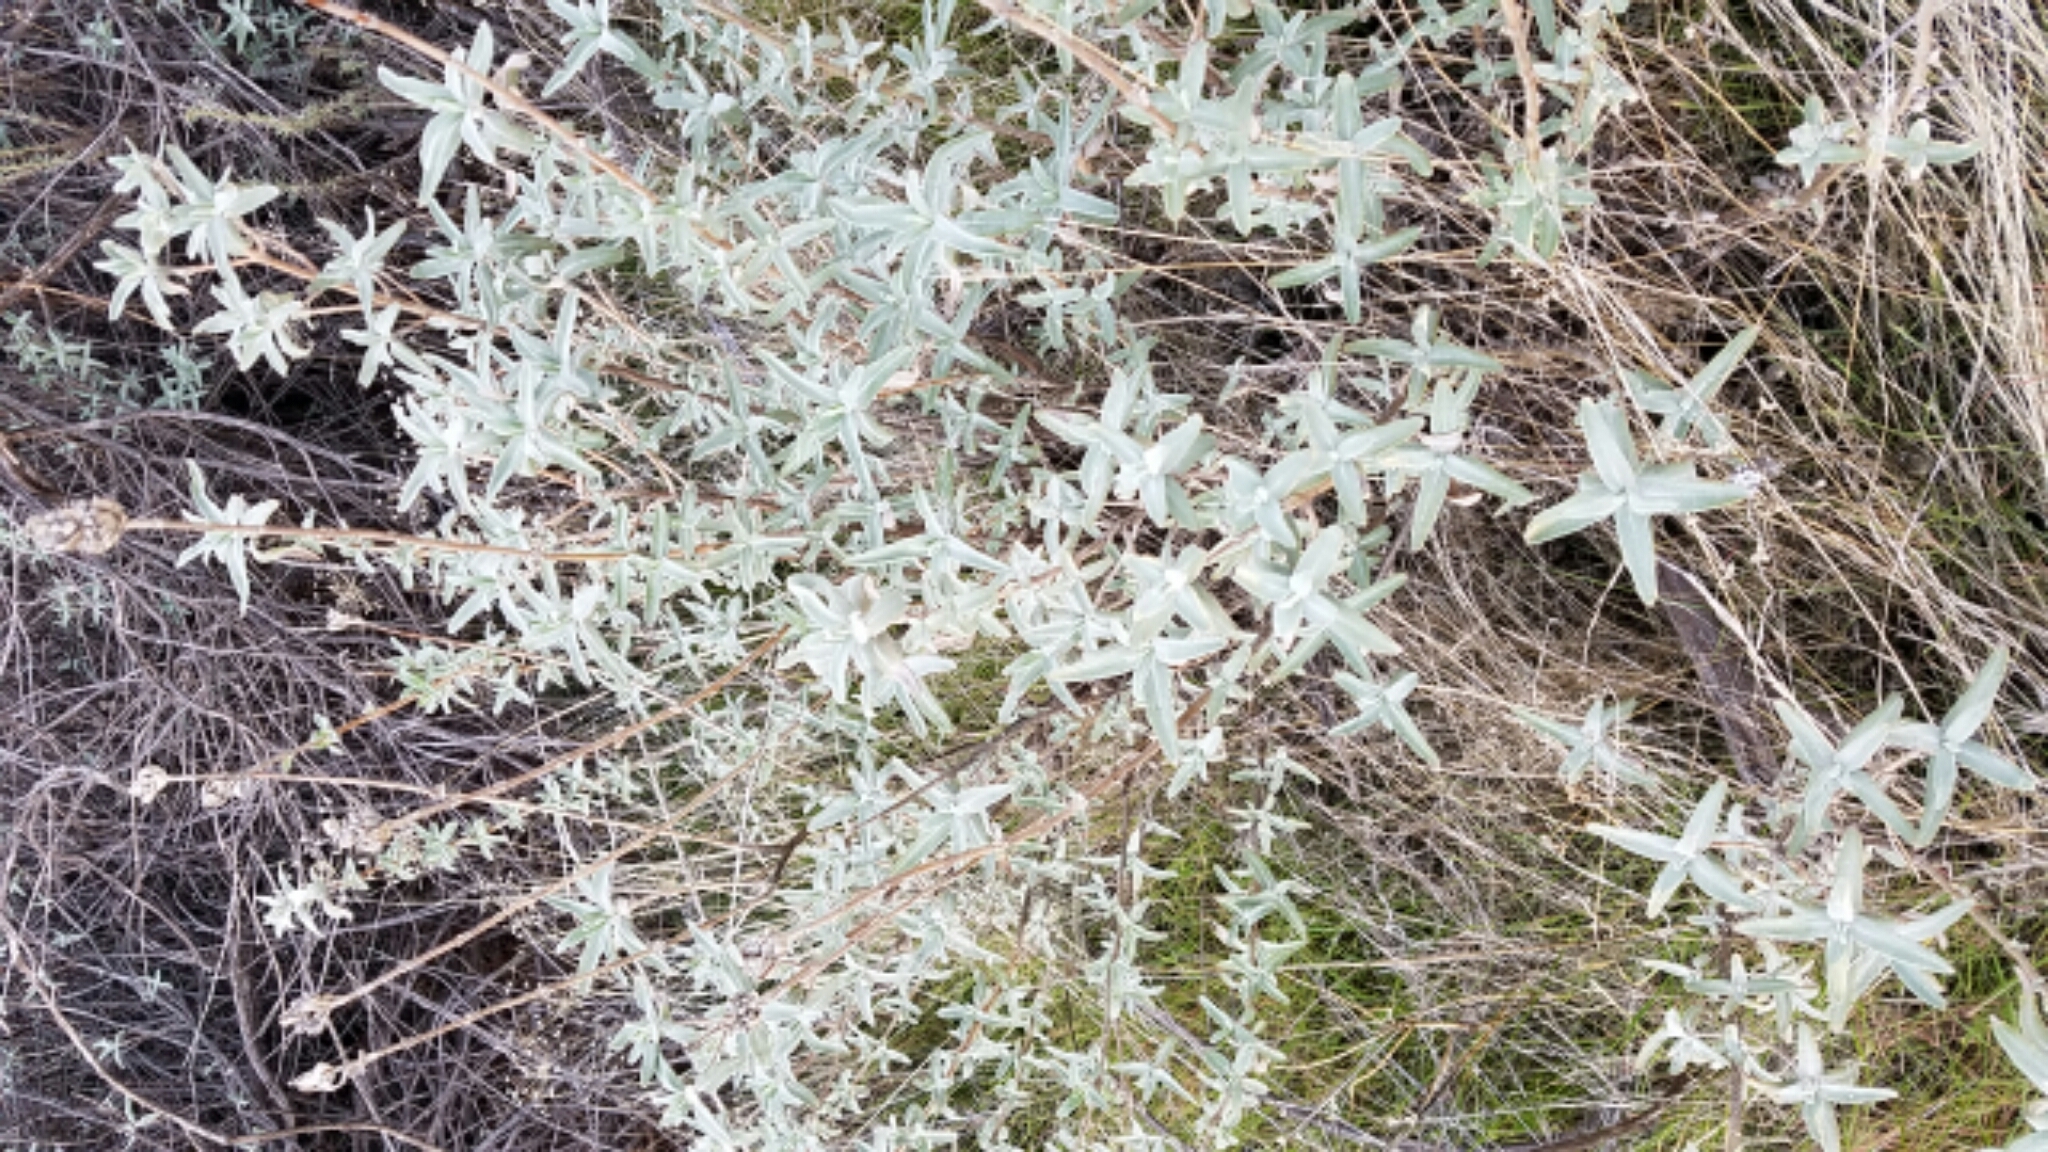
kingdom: Plantae
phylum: Tracheophyta
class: Magnoliopsida
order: Lamiales
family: Lamiaceae
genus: Salvia
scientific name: Salvia leucophylla
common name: Purple sage
